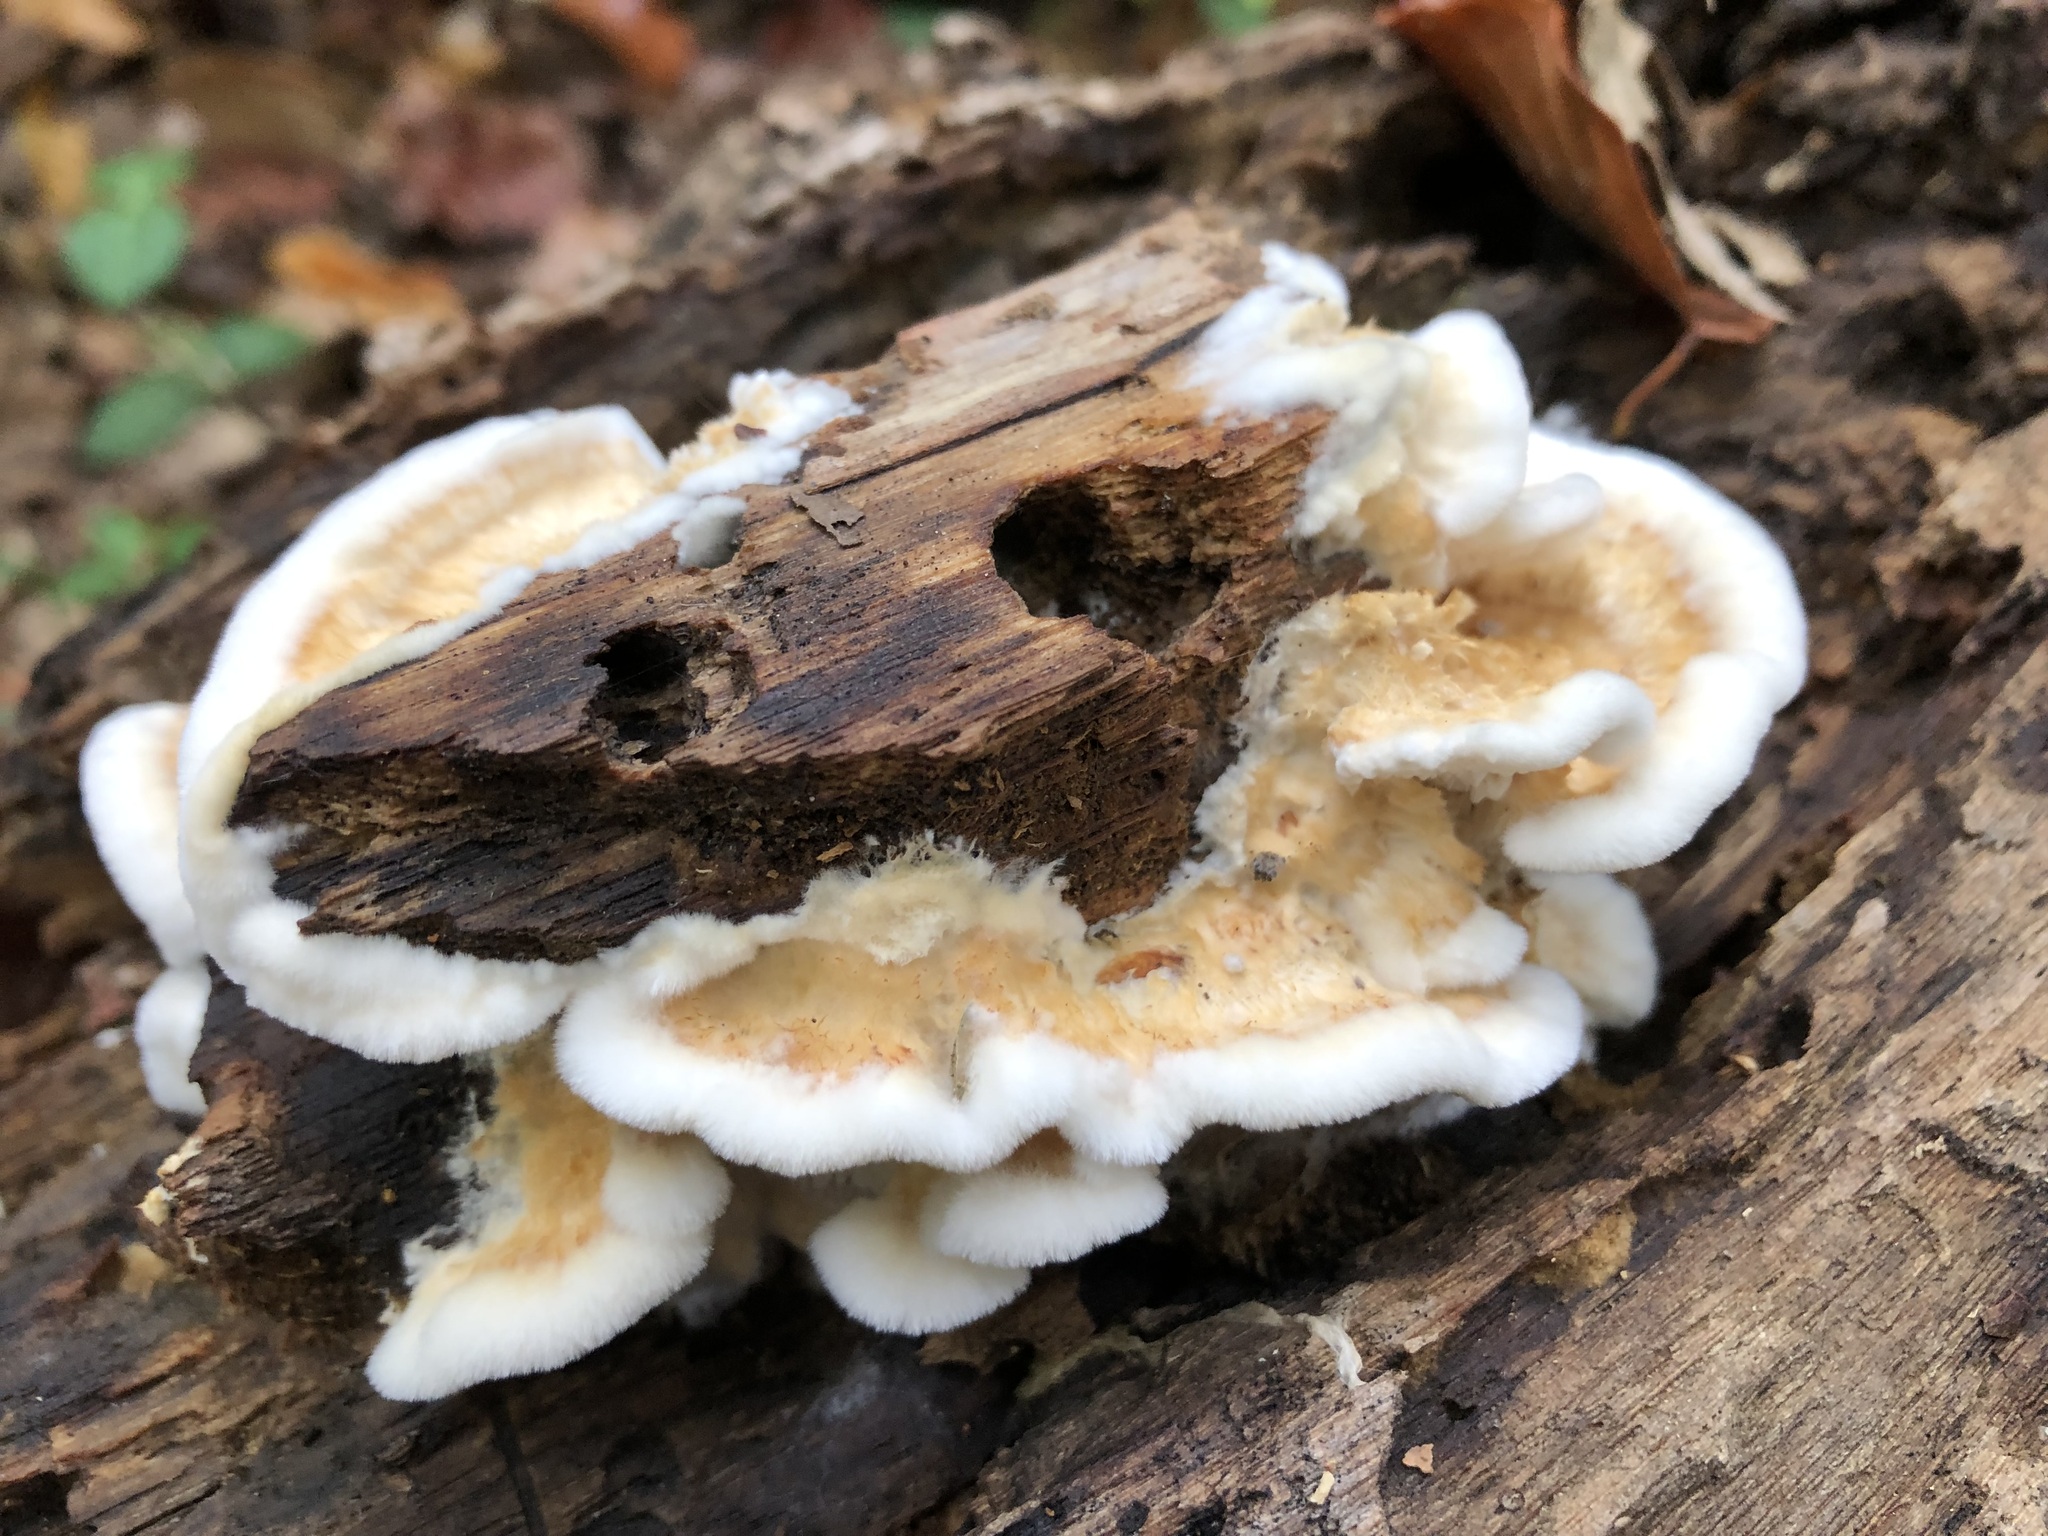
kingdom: Fungi
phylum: Basidiomycota
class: Agaricomycetes
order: Polyporales
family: Irpicaceae
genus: Trametopsis
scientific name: Trametopsis cervina
